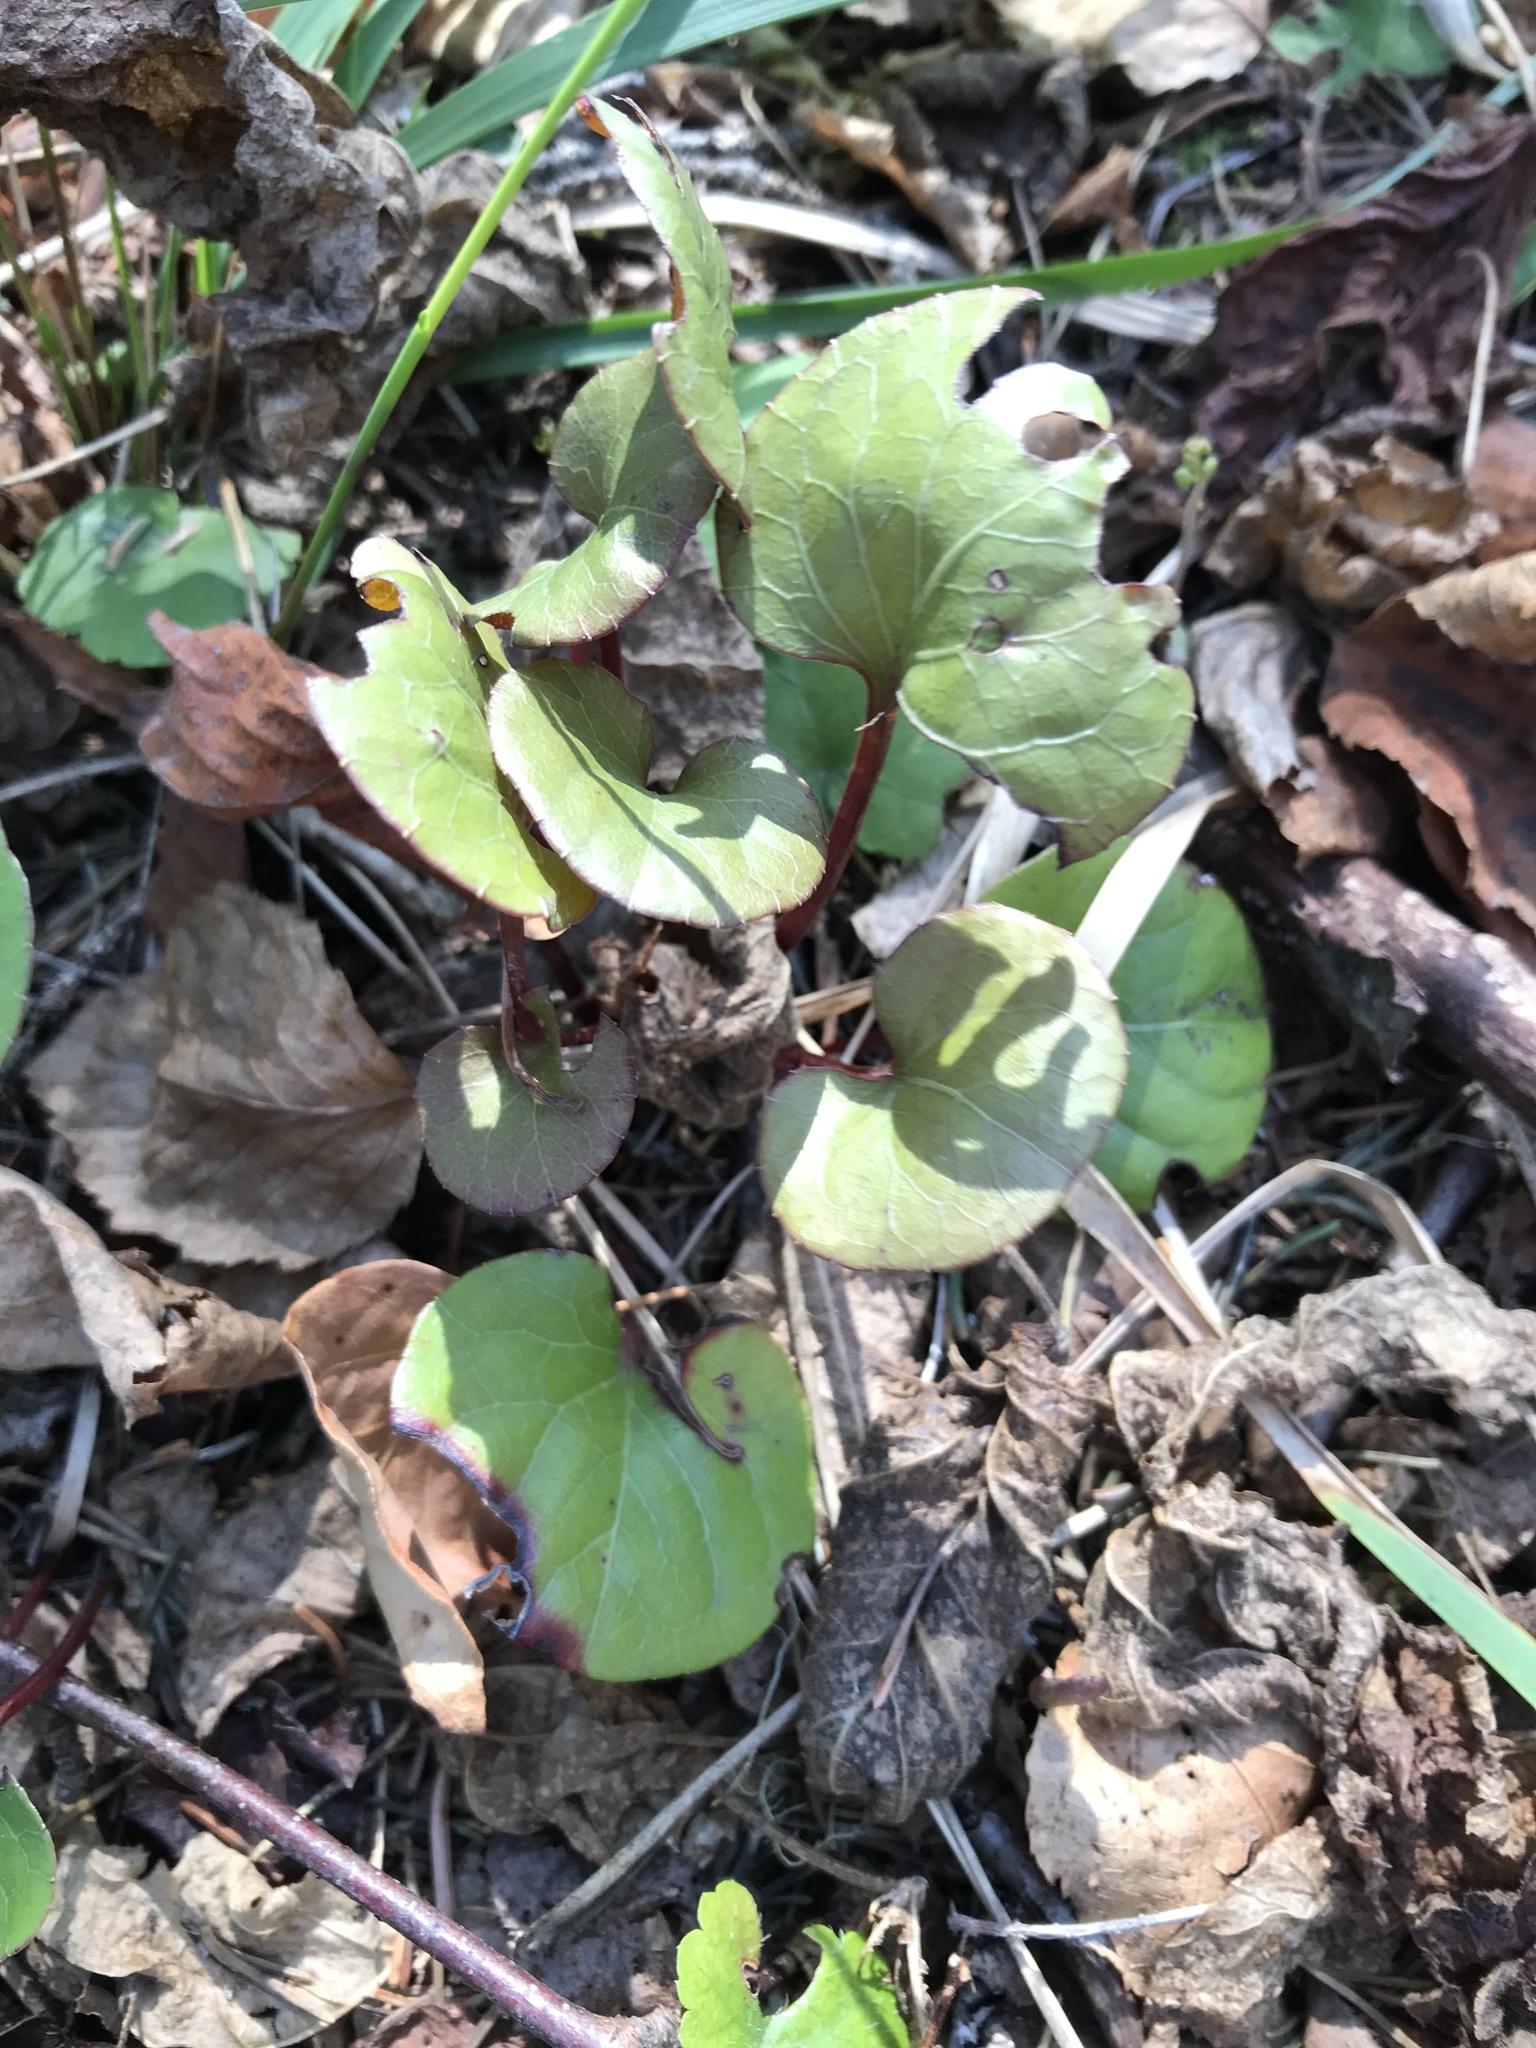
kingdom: Plantae
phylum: Tracheophyta
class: Magnoliopsida
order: Ericales
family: Ericaceae
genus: Pyrola
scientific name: Pyrola asarifolia
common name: Bog wintergreen
